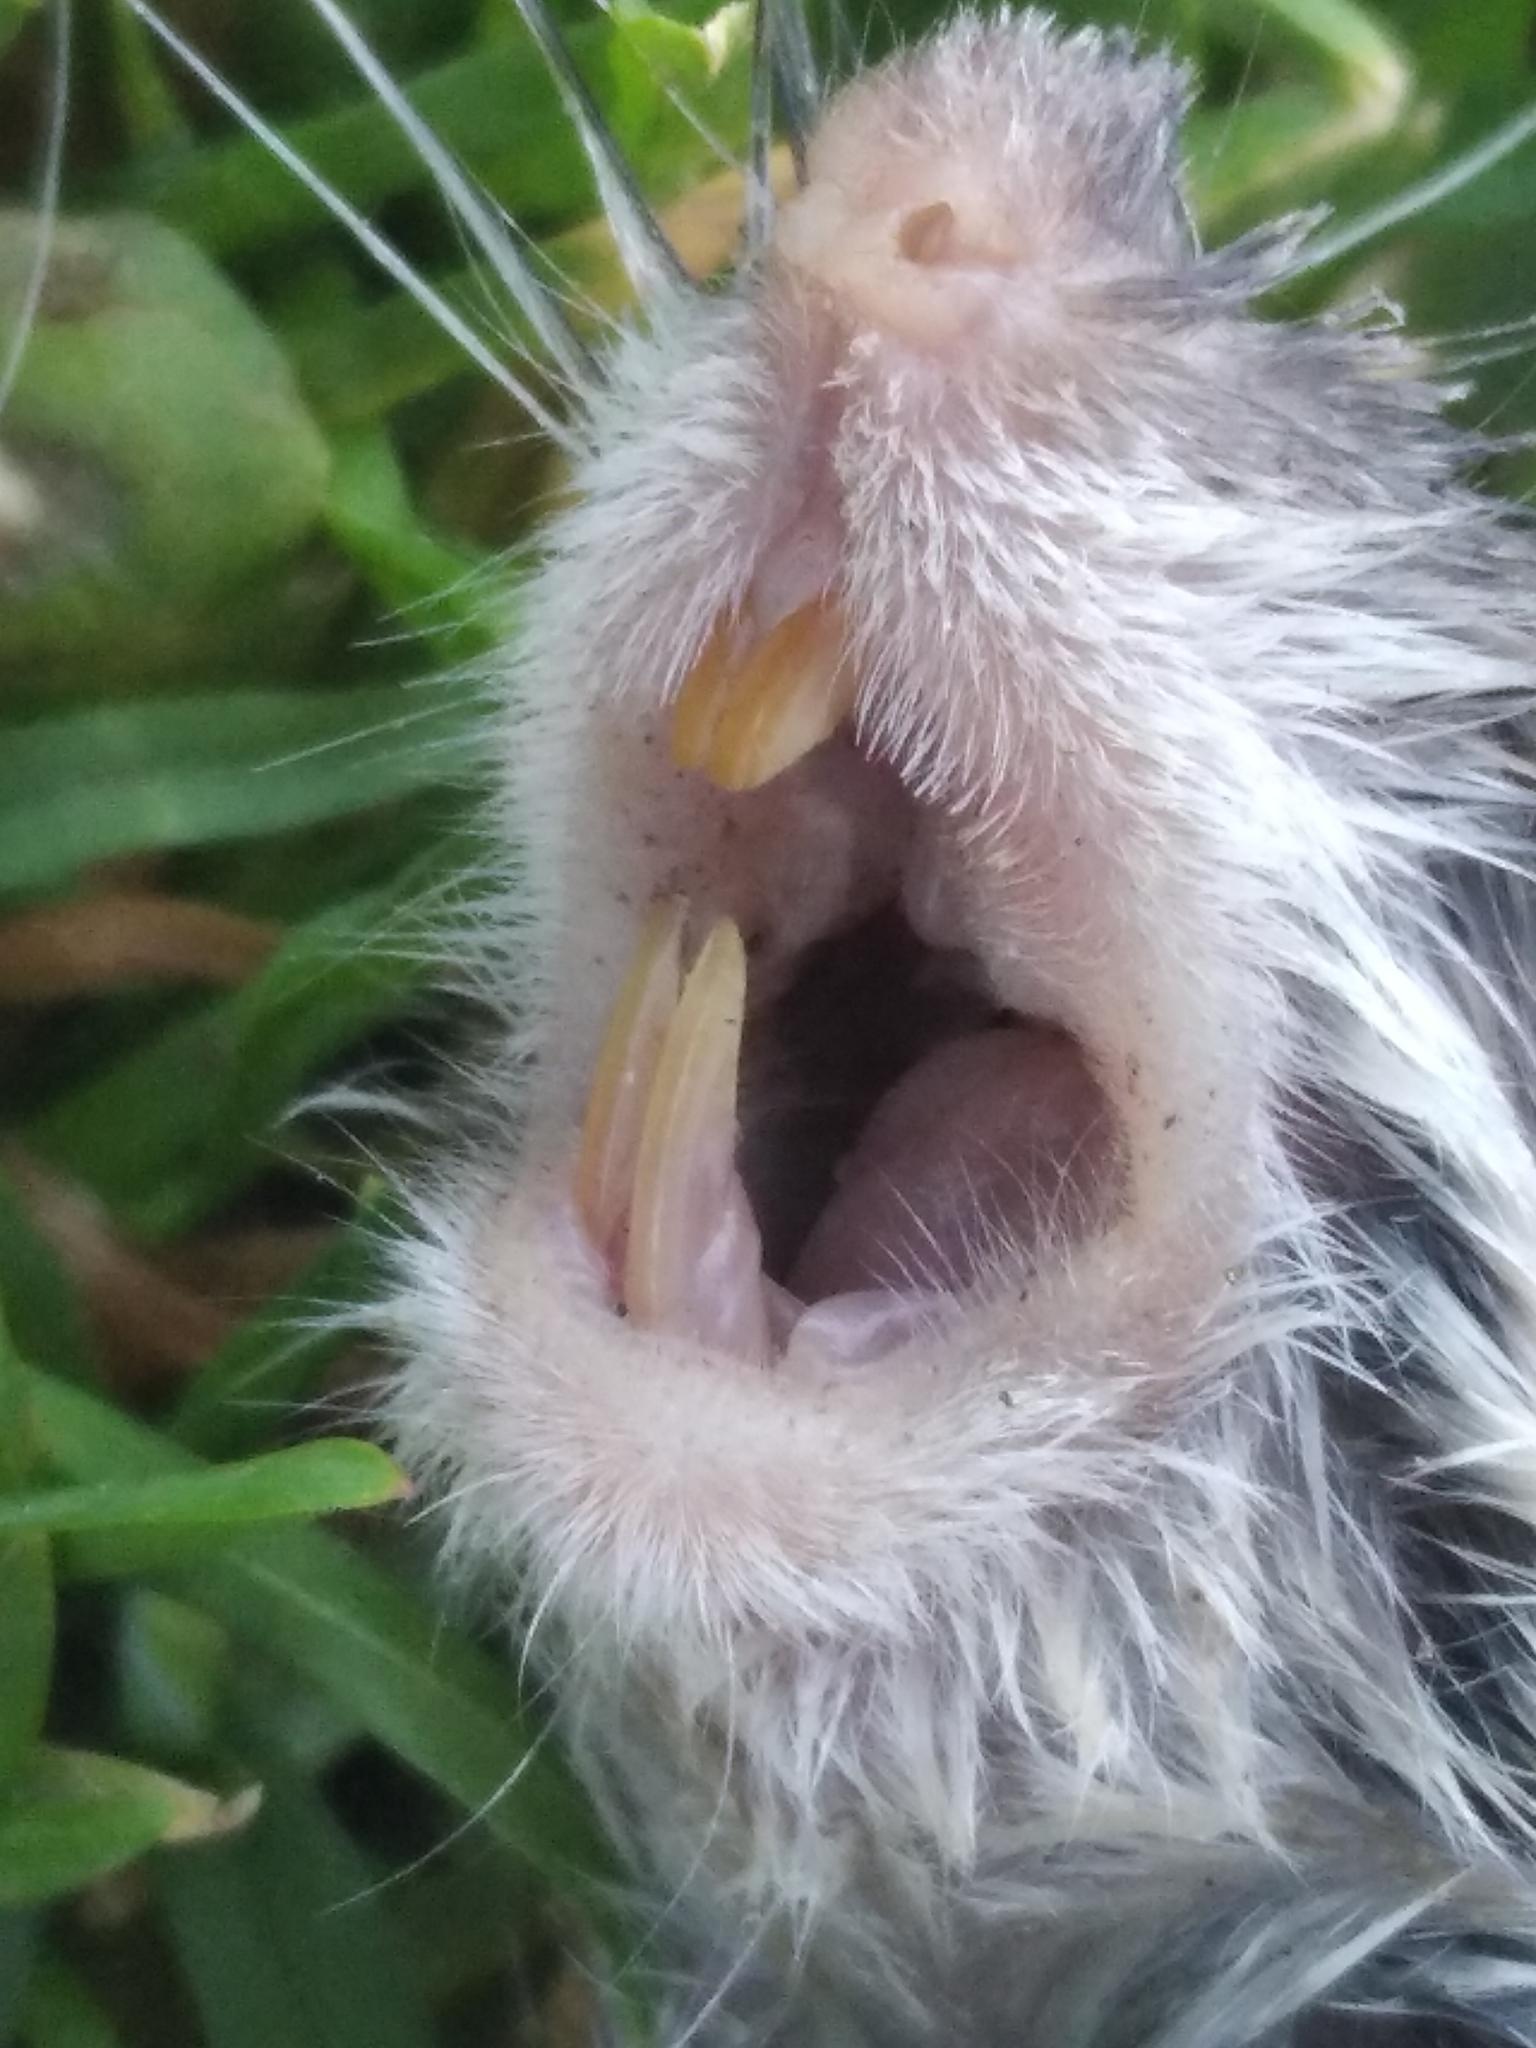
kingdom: Animalia
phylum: Chordata
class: Mammalia
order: Rodentia
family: Muridae
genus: Apodemus
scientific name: Apodemus
